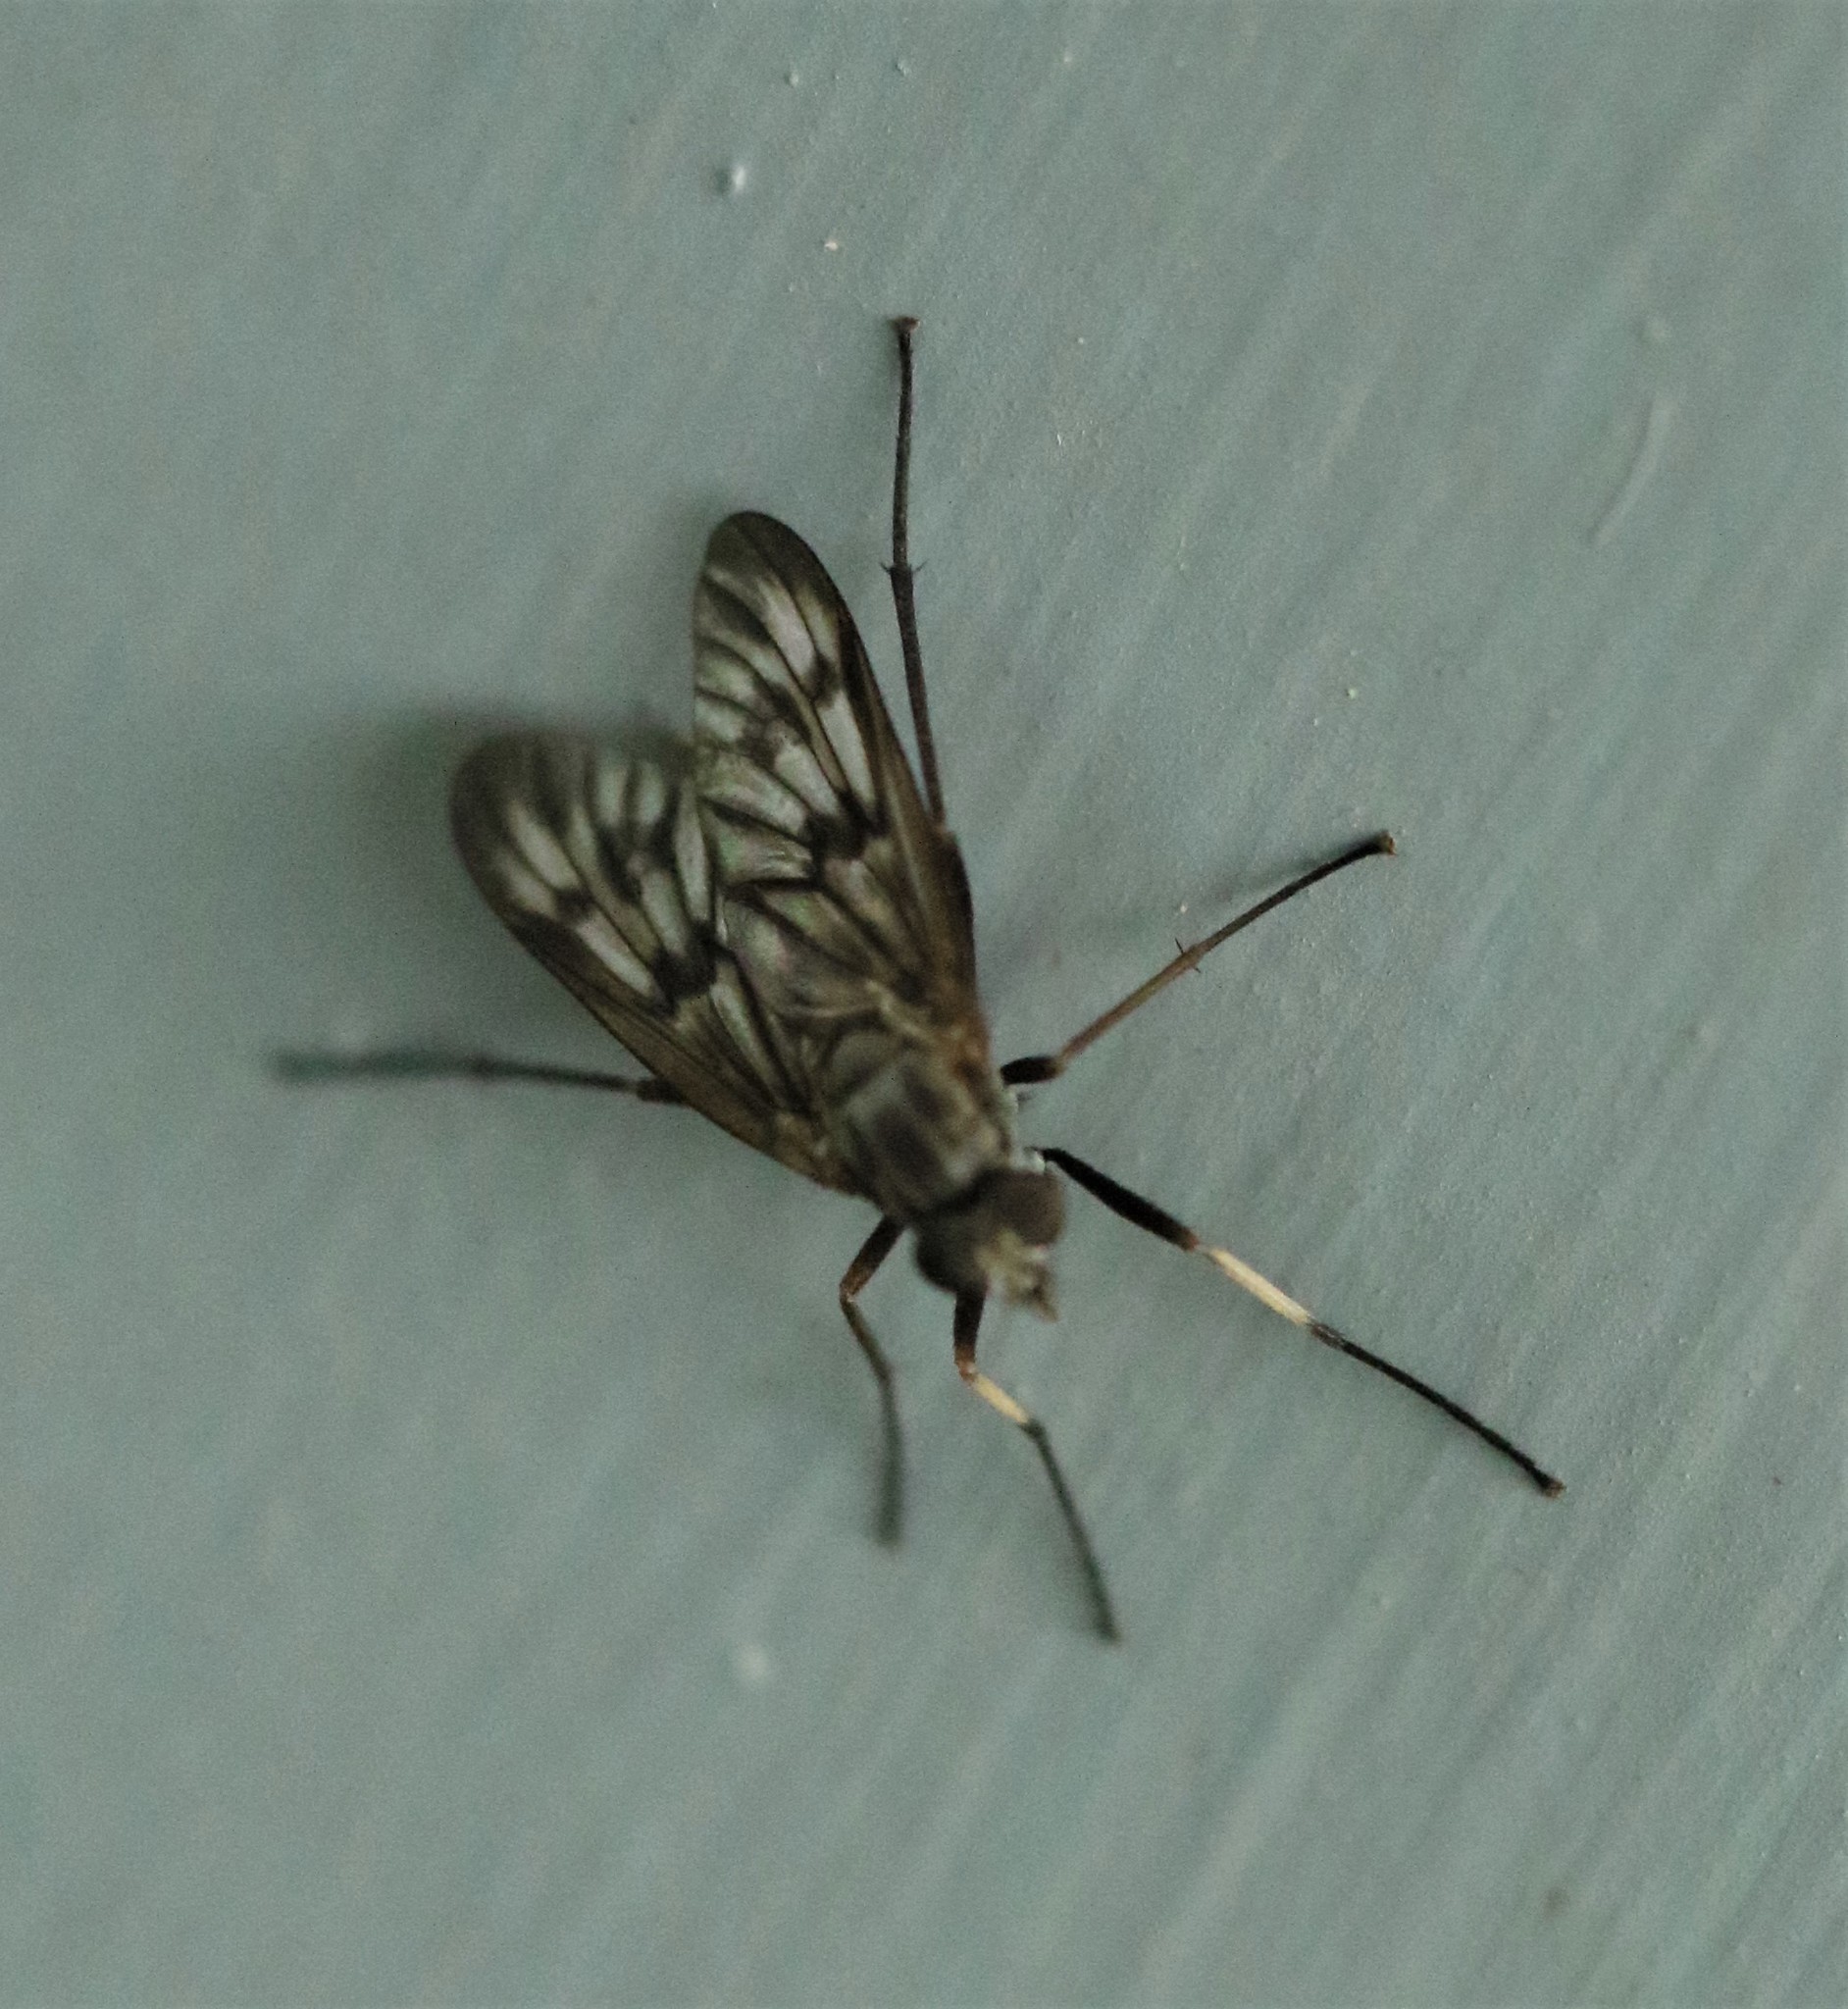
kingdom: Animalia
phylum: Arthropoda
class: Insecta
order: Diptera
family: Rhagionidae
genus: Rhagio
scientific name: Rhagio mystaceus
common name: Common snipe fly
